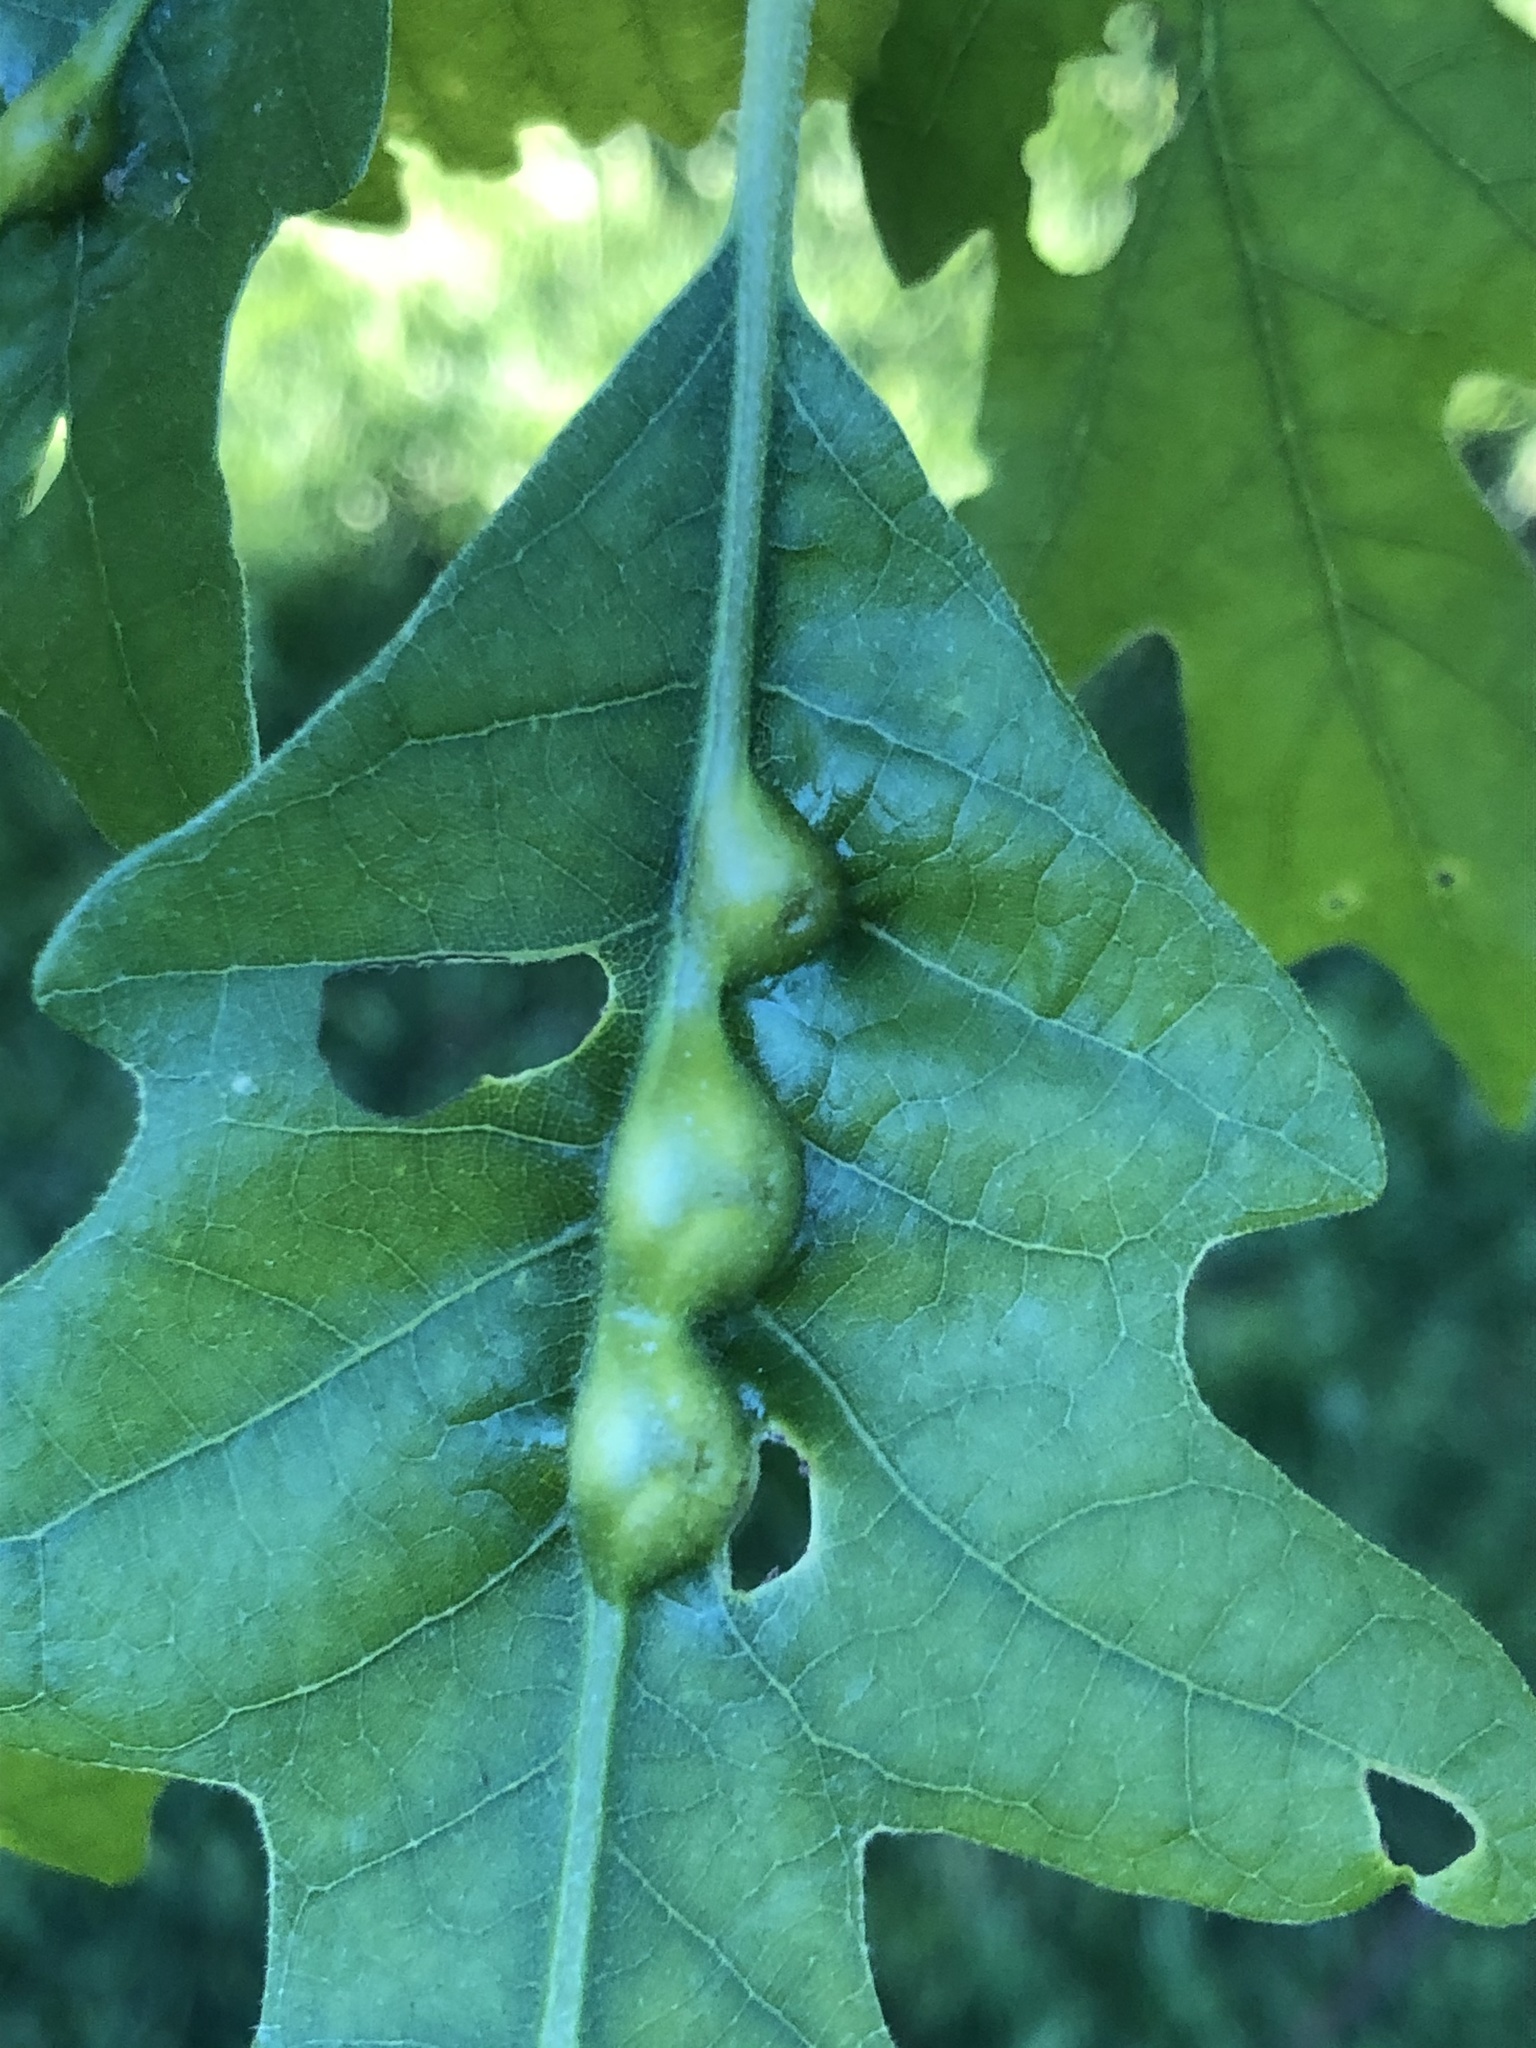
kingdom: Animalia
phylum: Arthropoda
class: Insecta
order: Hymenoptera
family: Cynipidae
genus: Andricus
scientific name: Andricus
